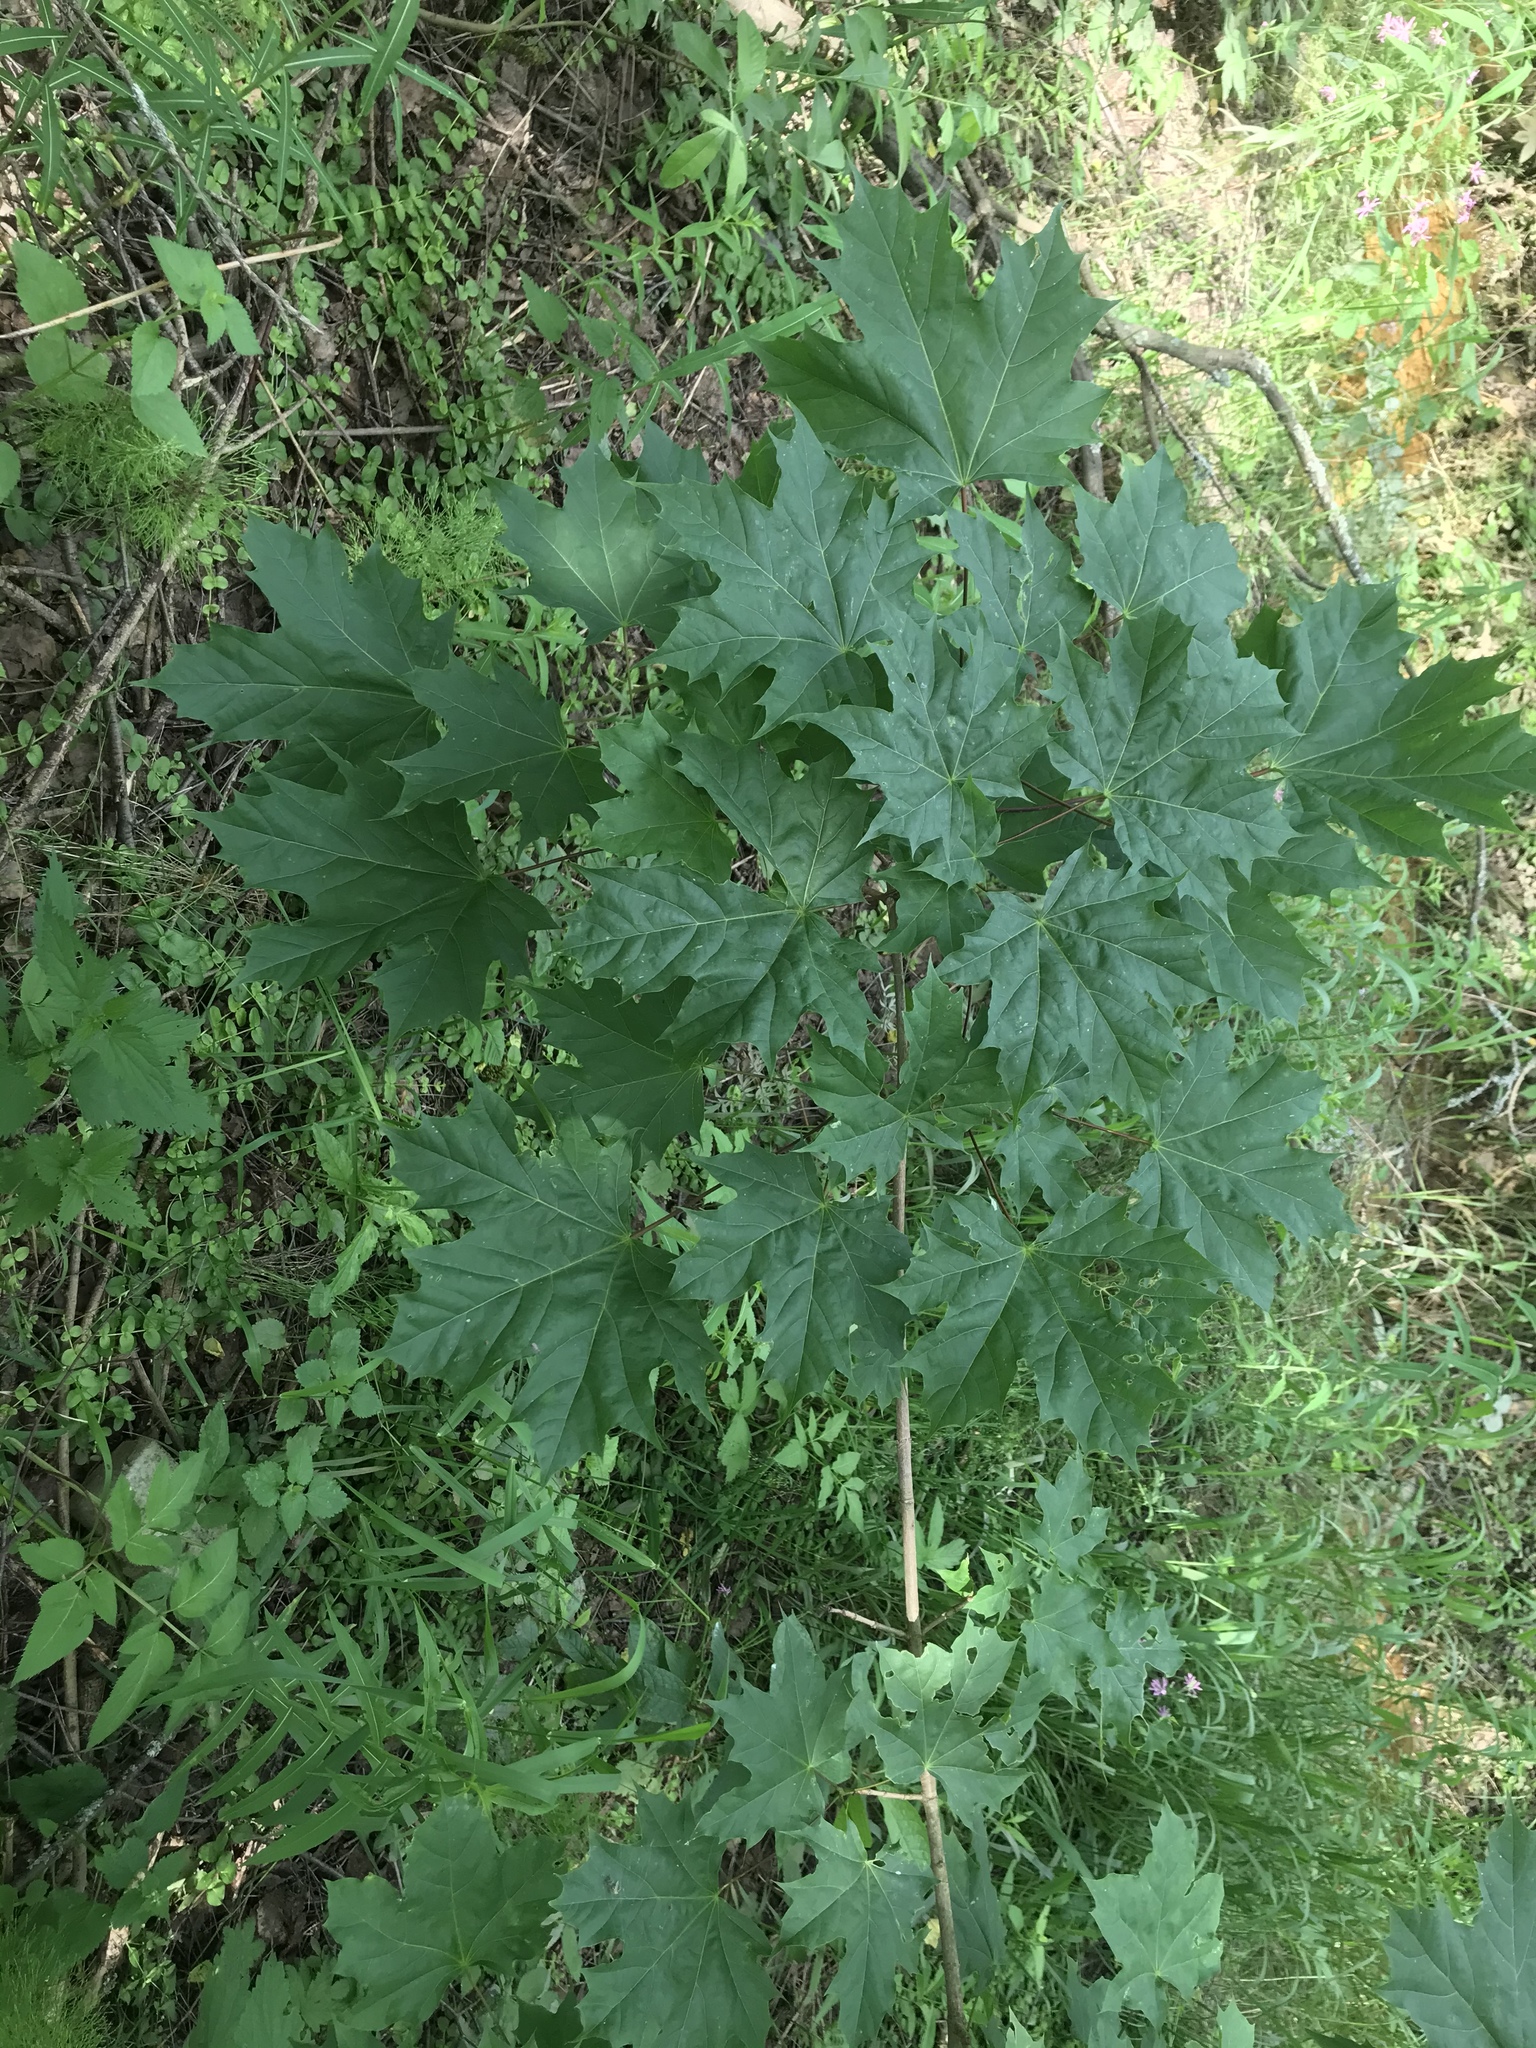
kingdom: Plantae
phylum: Tracheophyta
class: Magnoliopsida
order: Sapindales
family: Sapindaceae
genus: Acer
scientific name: Acer platanoides
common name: Norway maple
